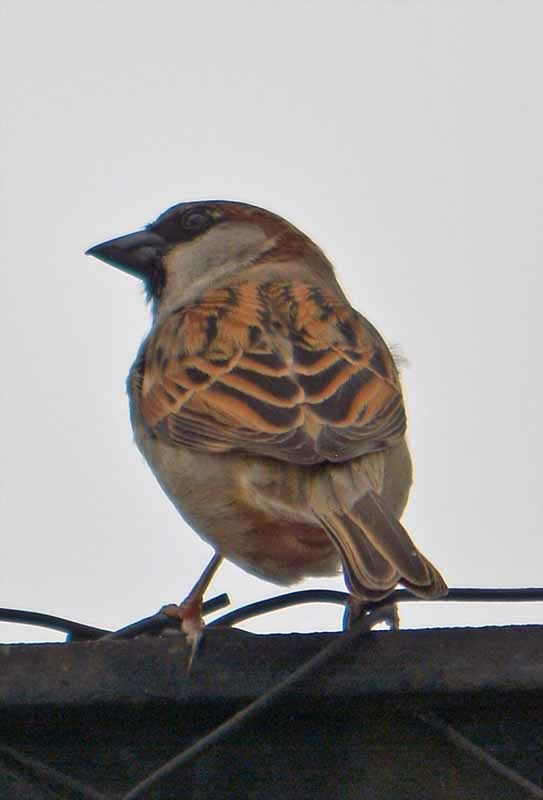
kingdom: Animalia
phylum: Chordata
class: Aves
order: Passeriformes
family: Passeridae
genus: Passer
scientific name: Passer domesticus
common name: House sparrow
